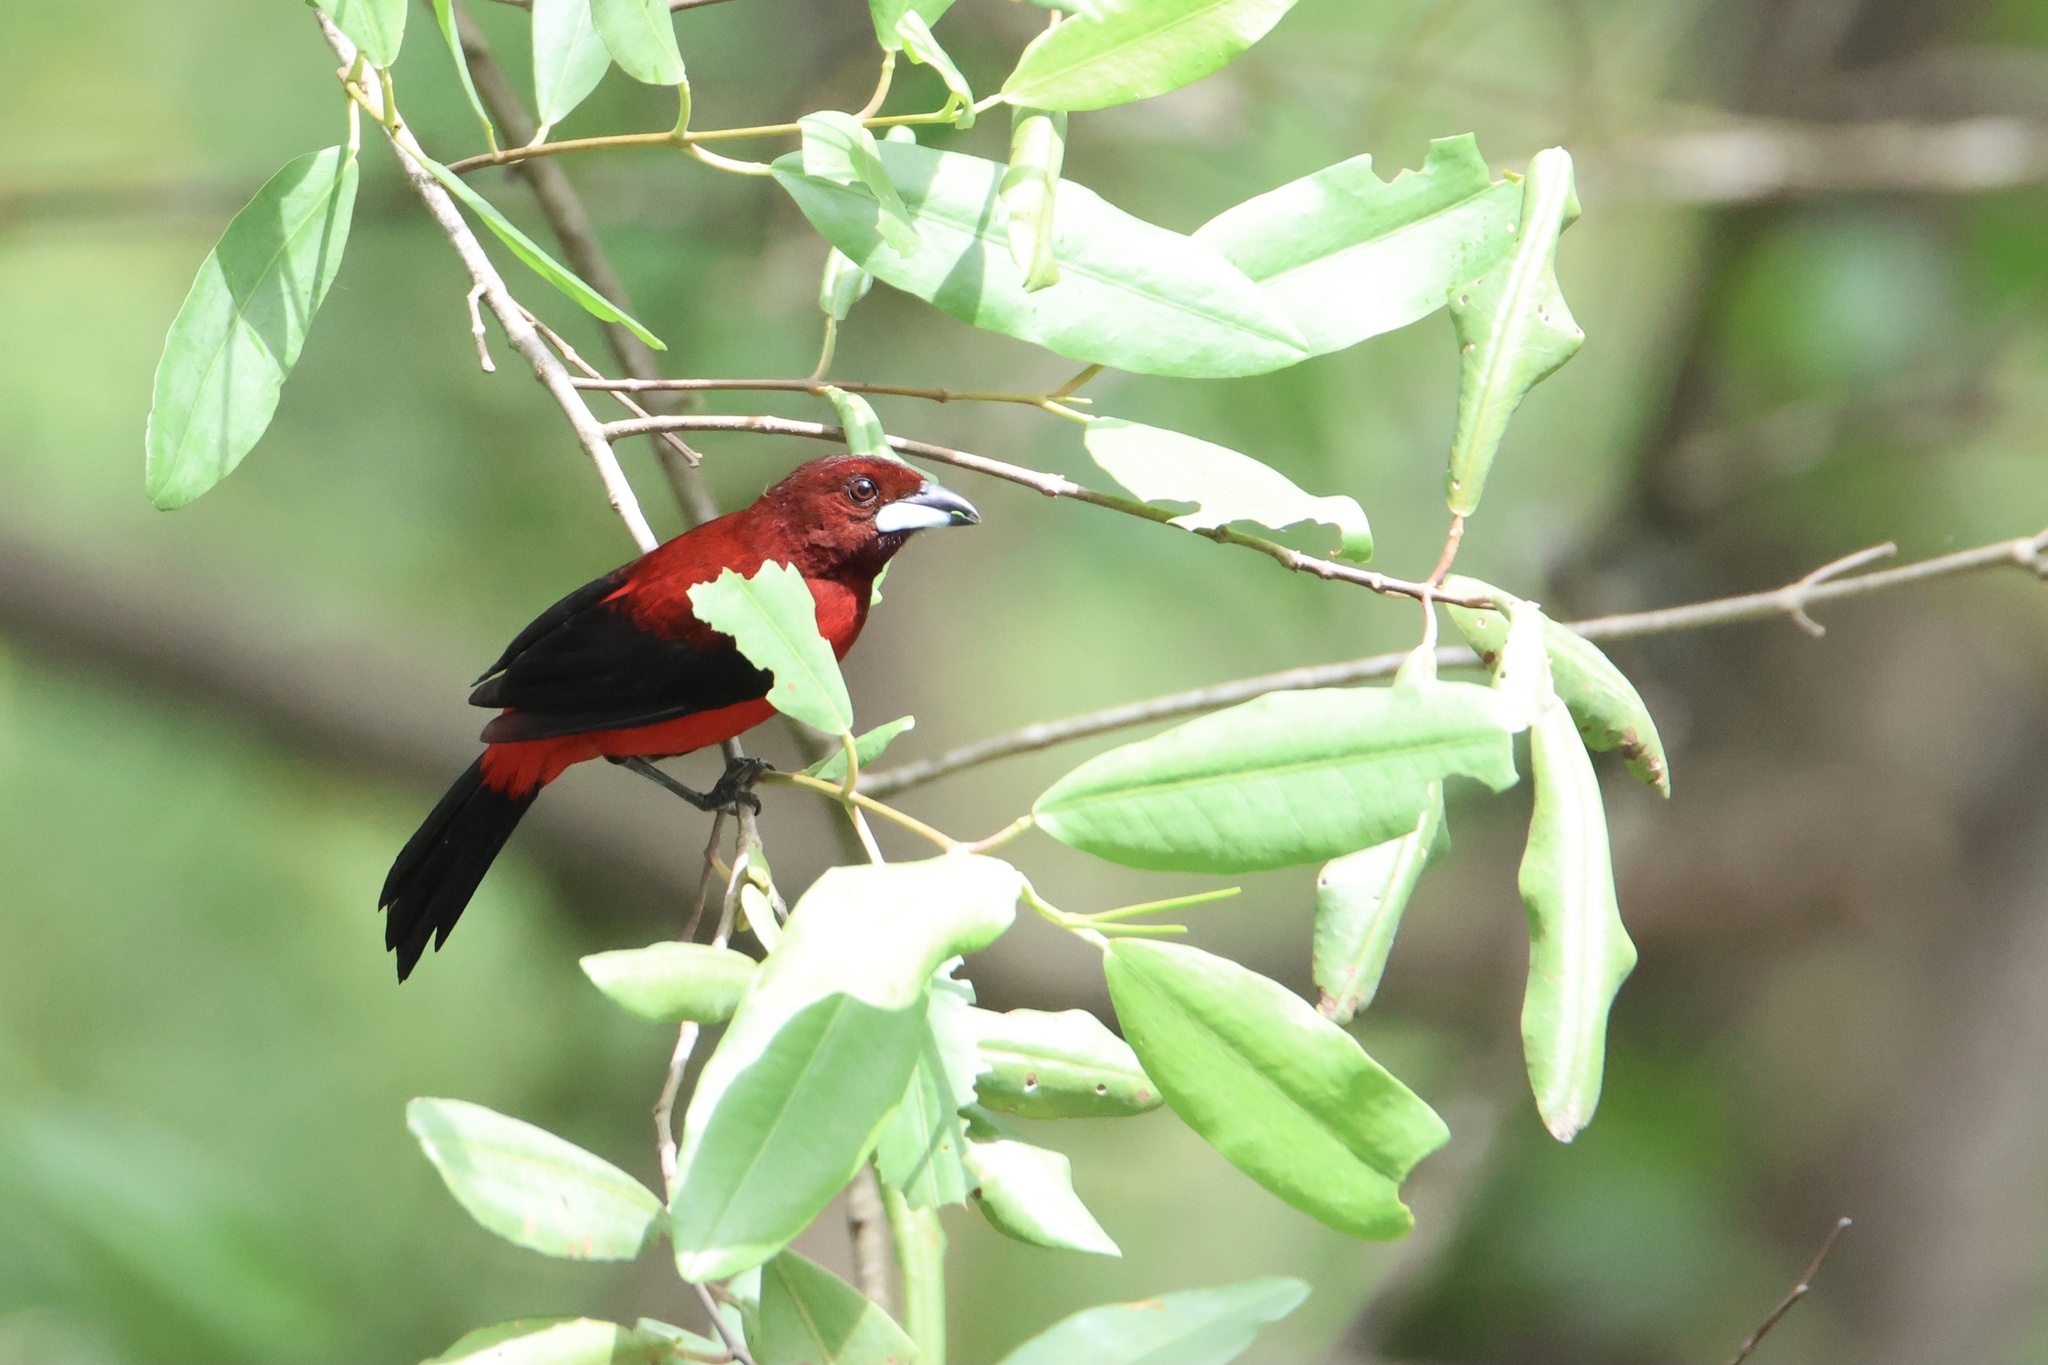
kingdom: Animalia
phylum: Chordata
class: Aves
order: Passeriformes
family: Thraupidae
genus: Ramphocelus
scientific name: Ramphocelus dimidiatus
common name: Crimson-backed tanager
